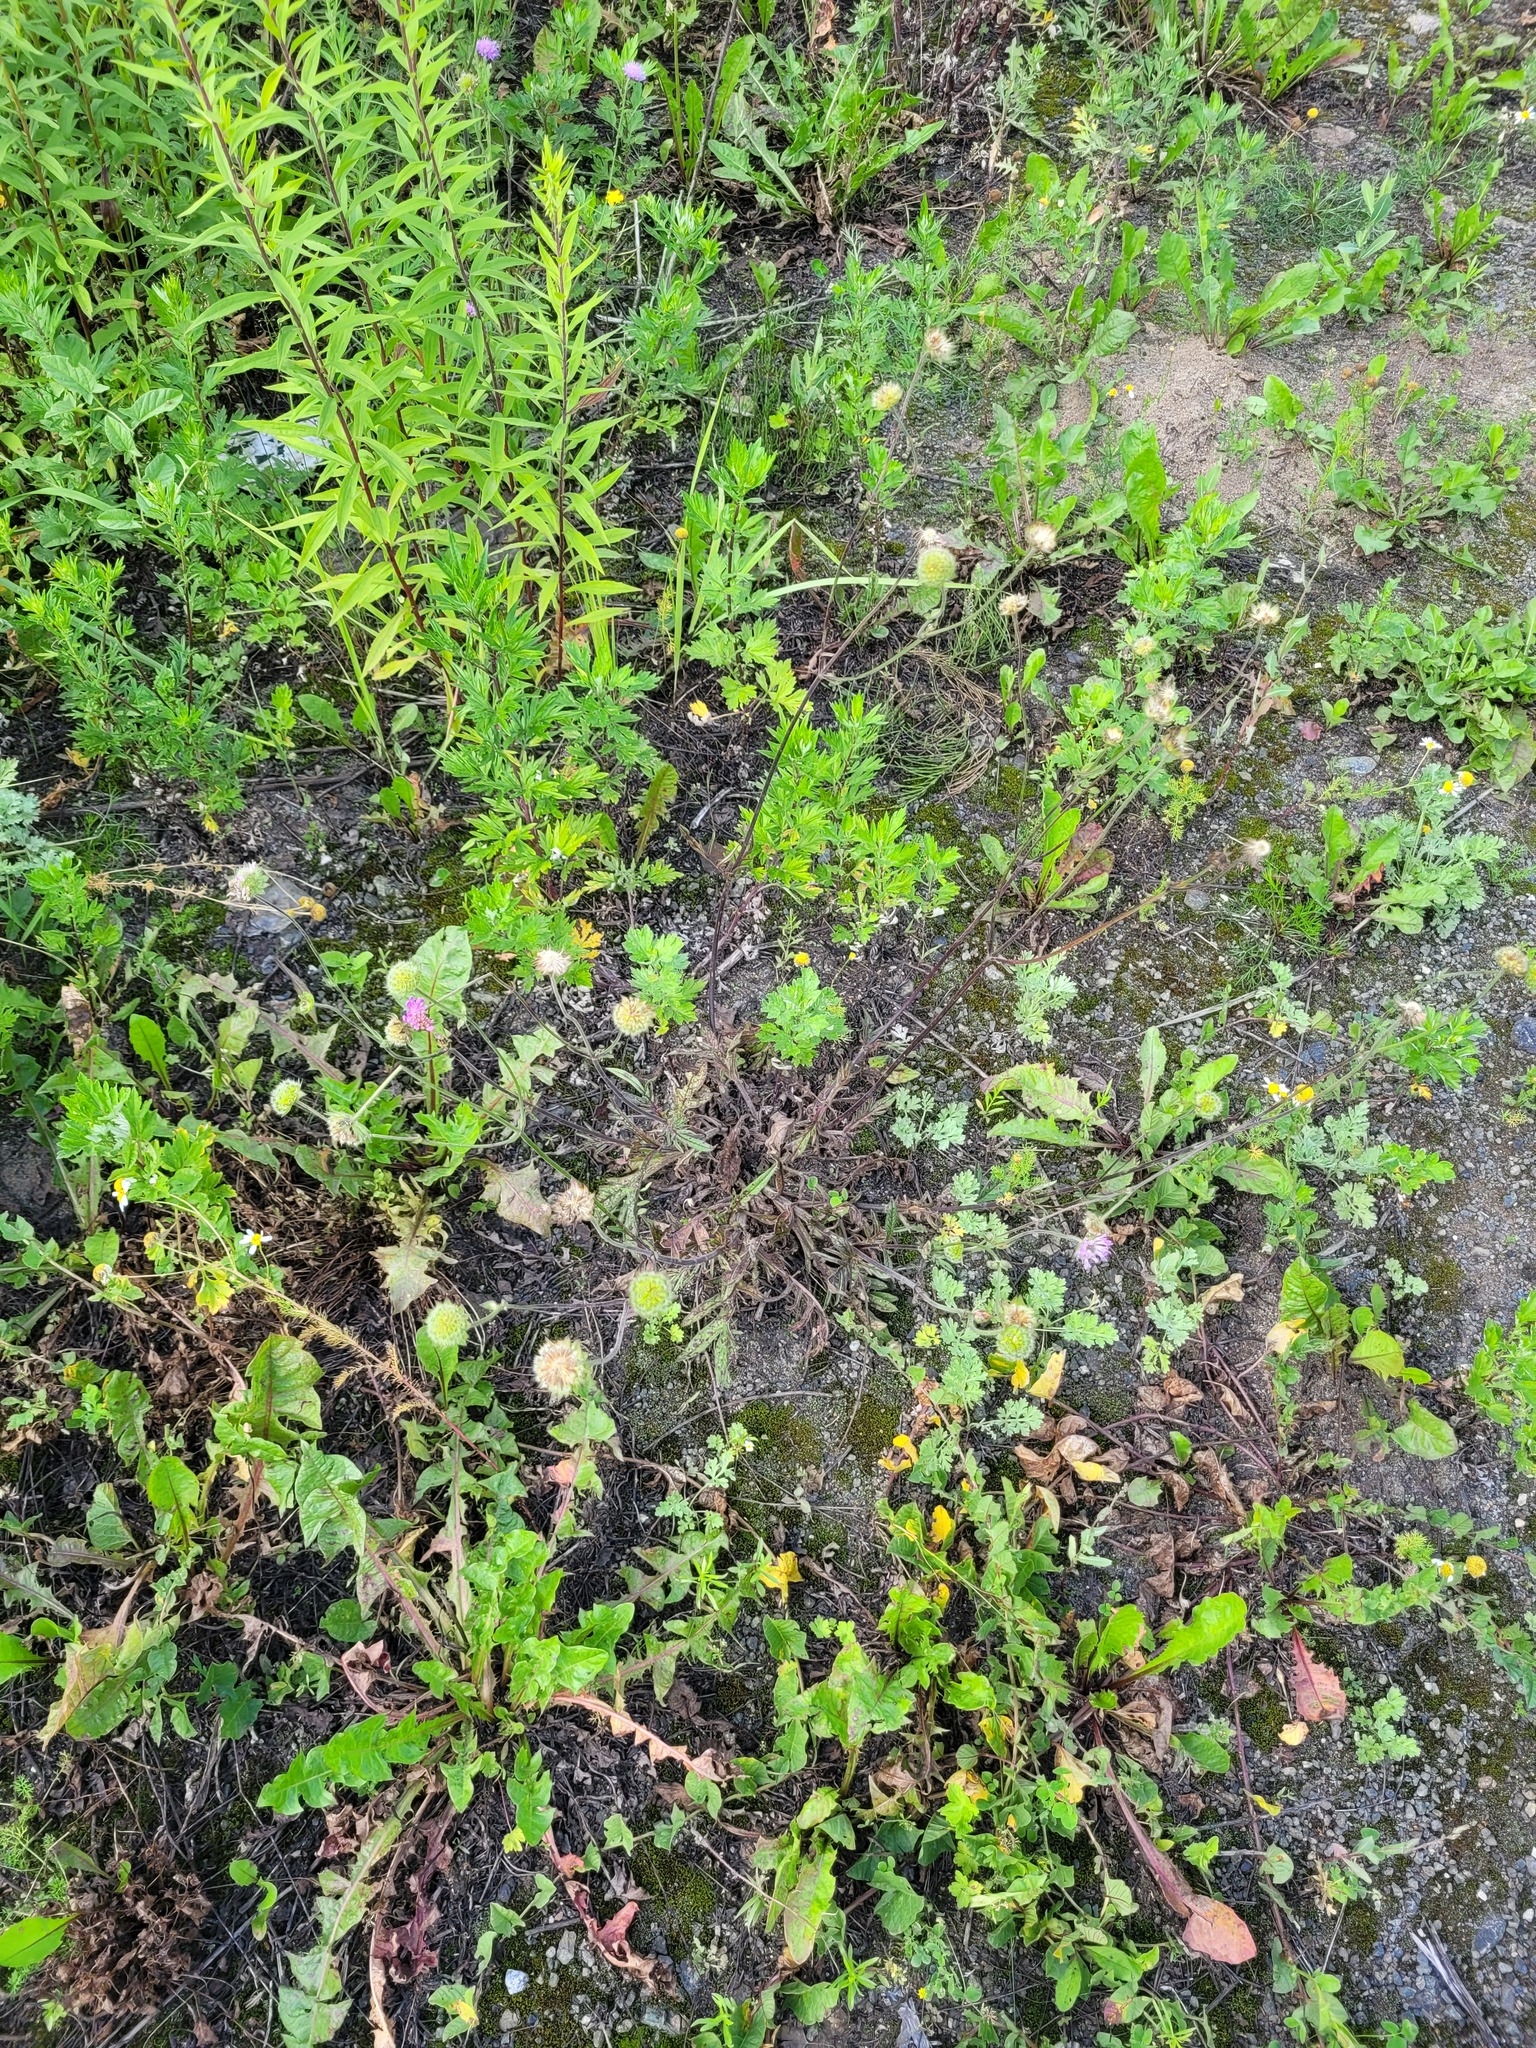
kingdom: Plantae
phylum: Tracheophyta
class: Magnoliopsida
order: Dipsacales
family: Caprifoliaceae
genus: Knautia
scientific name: Knautia arvensis
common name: Field scabiosa
